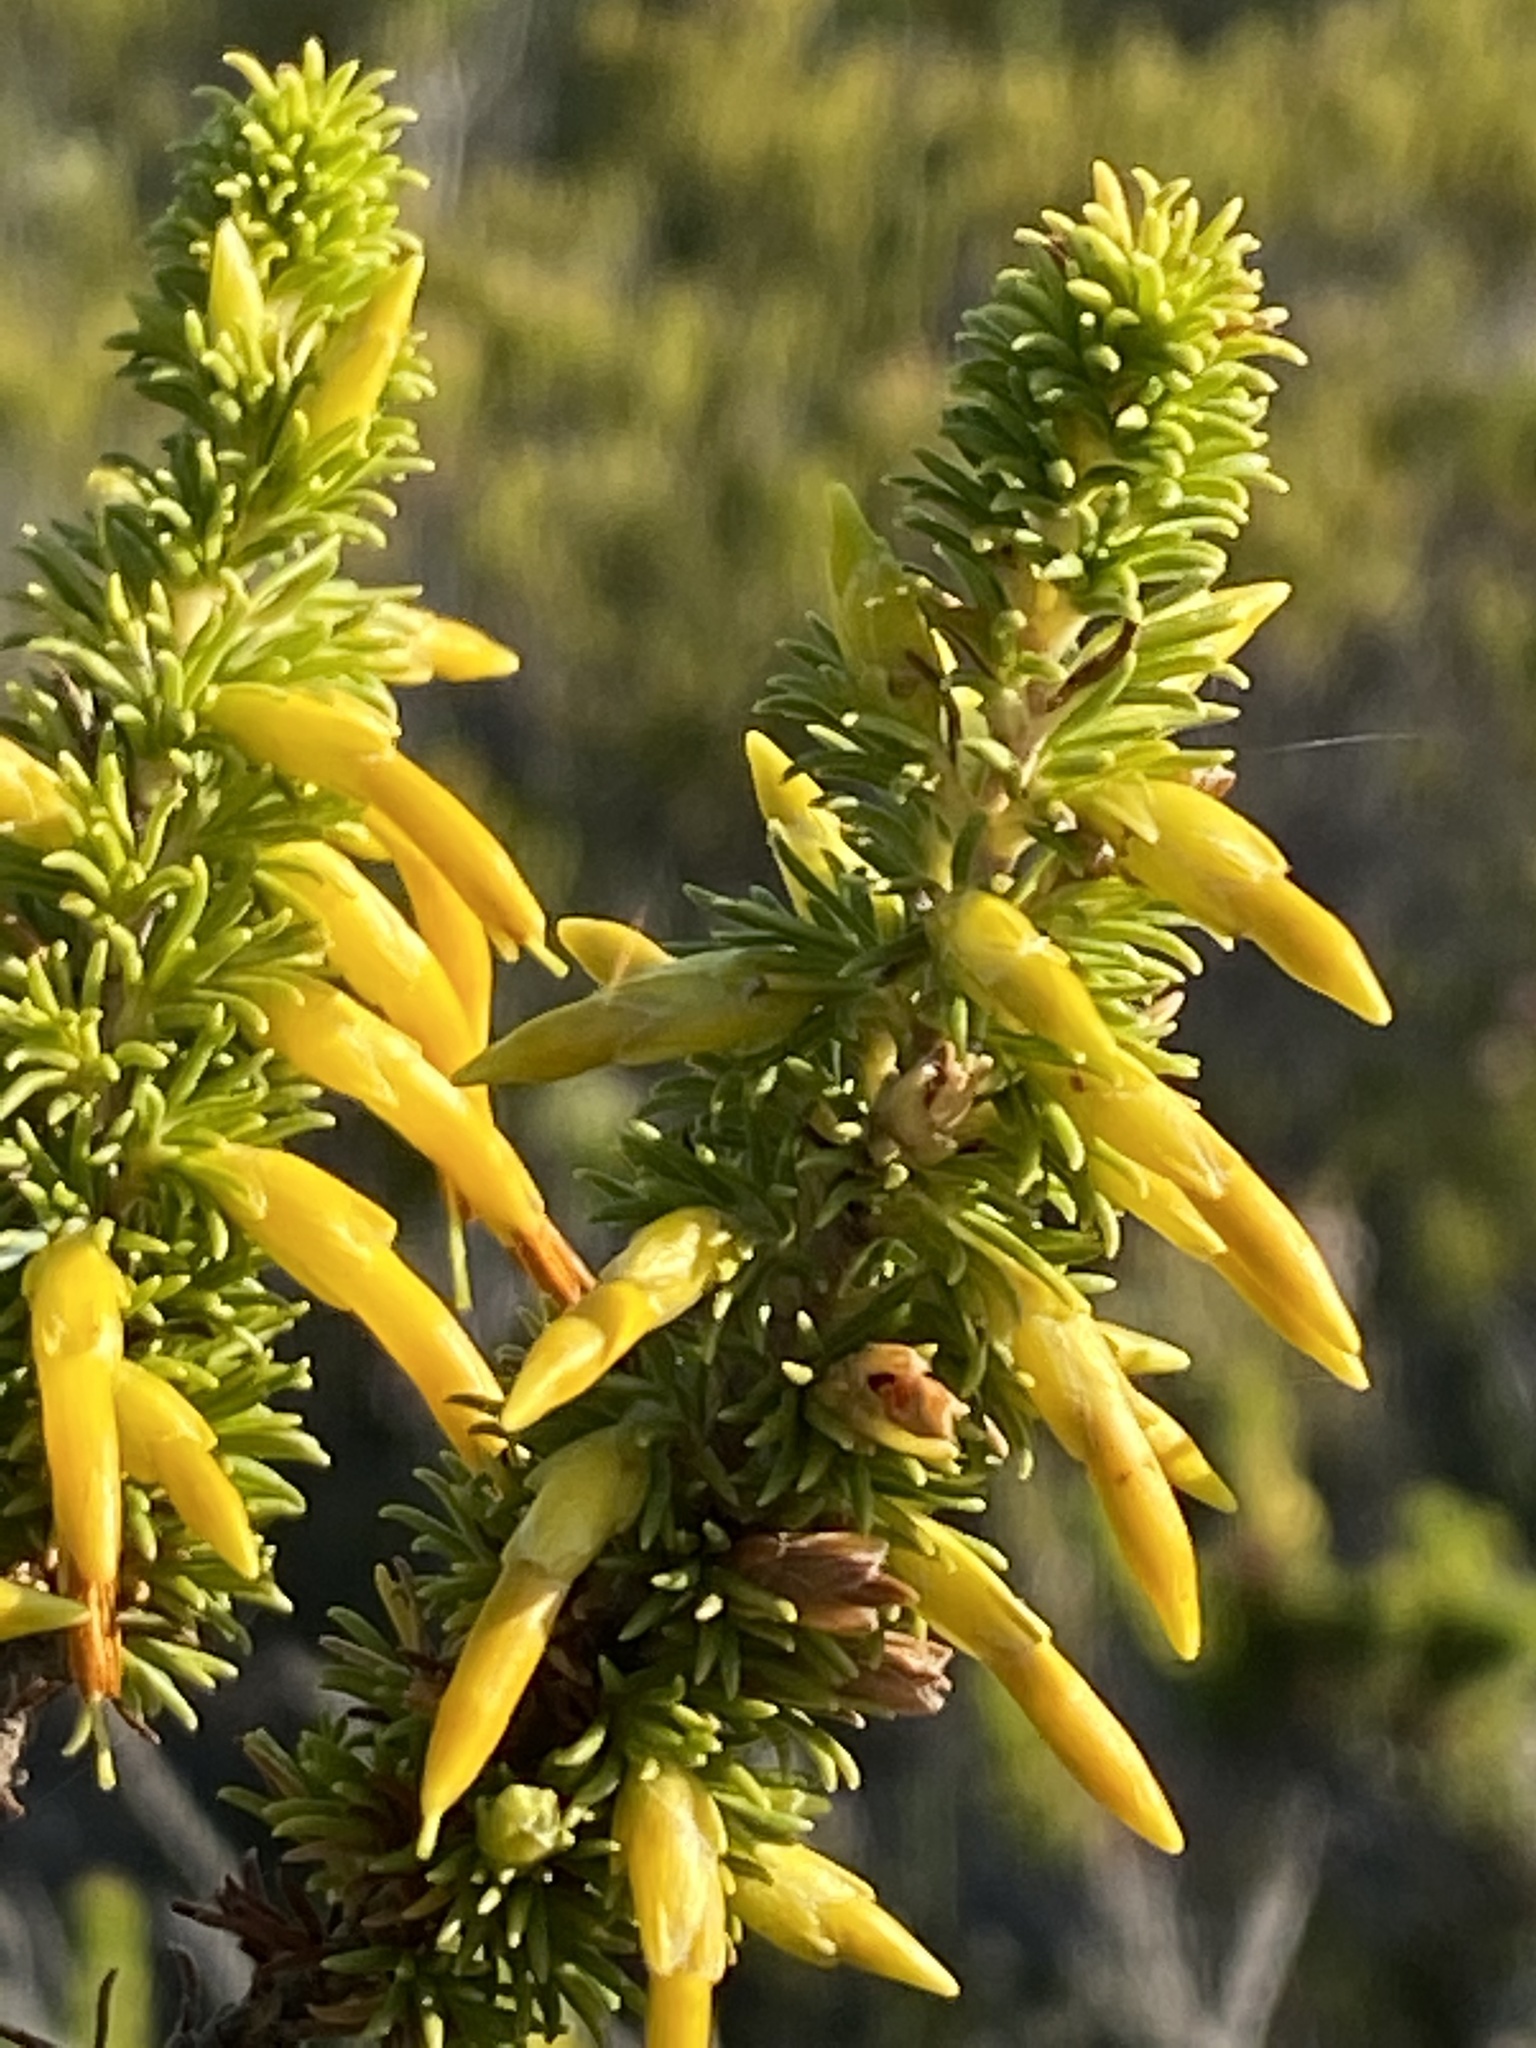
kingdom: Plantae
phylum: Tracheophyta
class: Magnoliopsida
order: Ericales
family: Ericaceae
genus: Erica
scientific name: Erica coccinea
